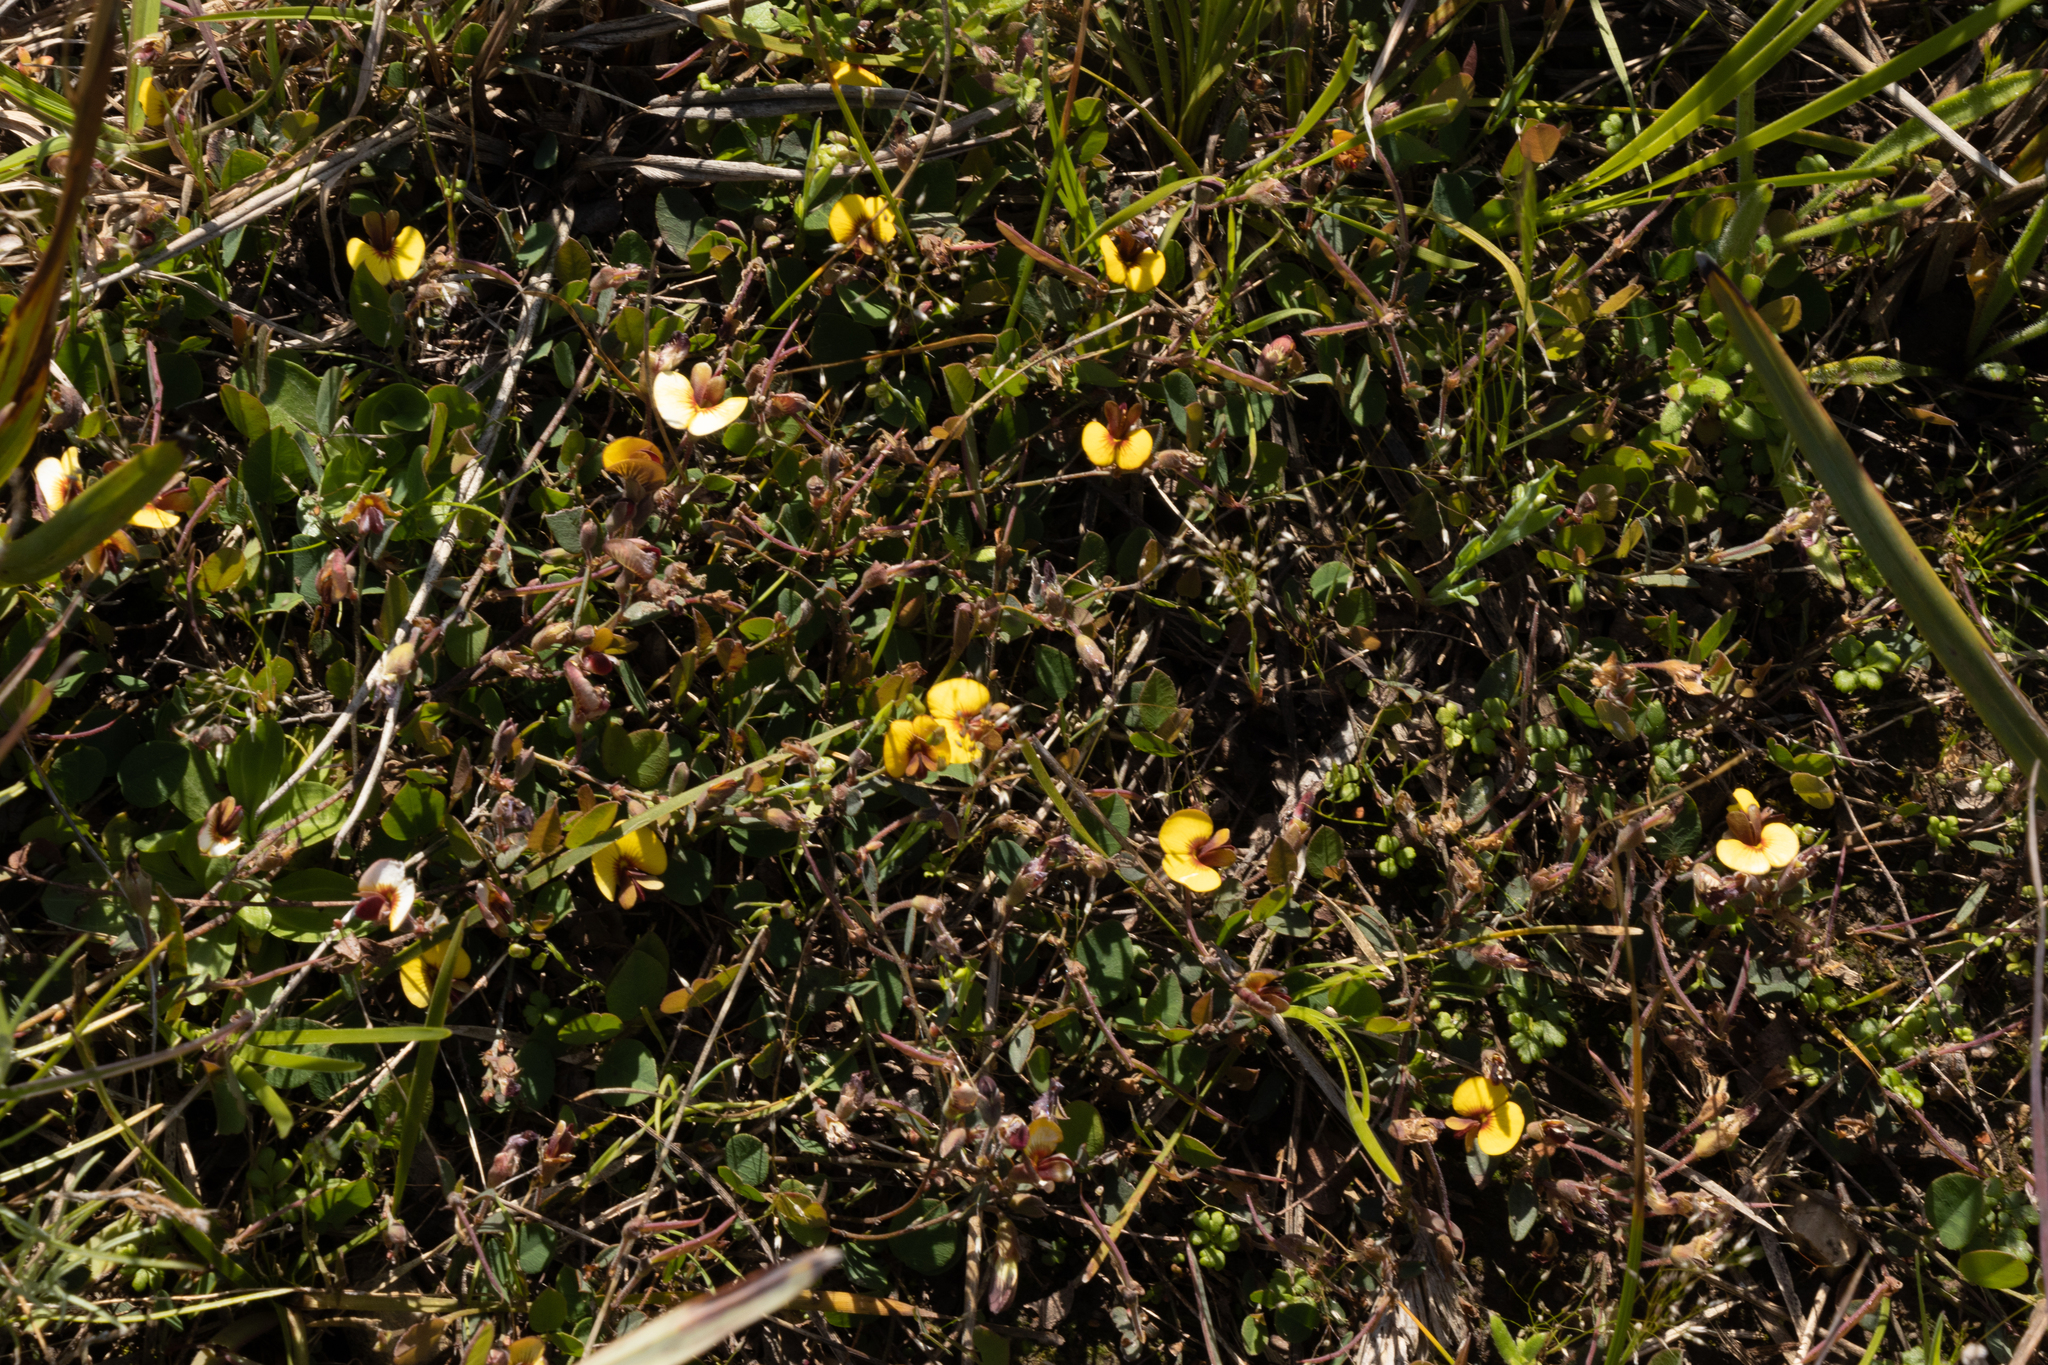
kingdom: Plantae
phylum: Tracheophyta
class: Magnoliopsida
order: Fabales
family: Fabaceae
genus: Bossiaea
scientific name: Bossiaea prostrata
